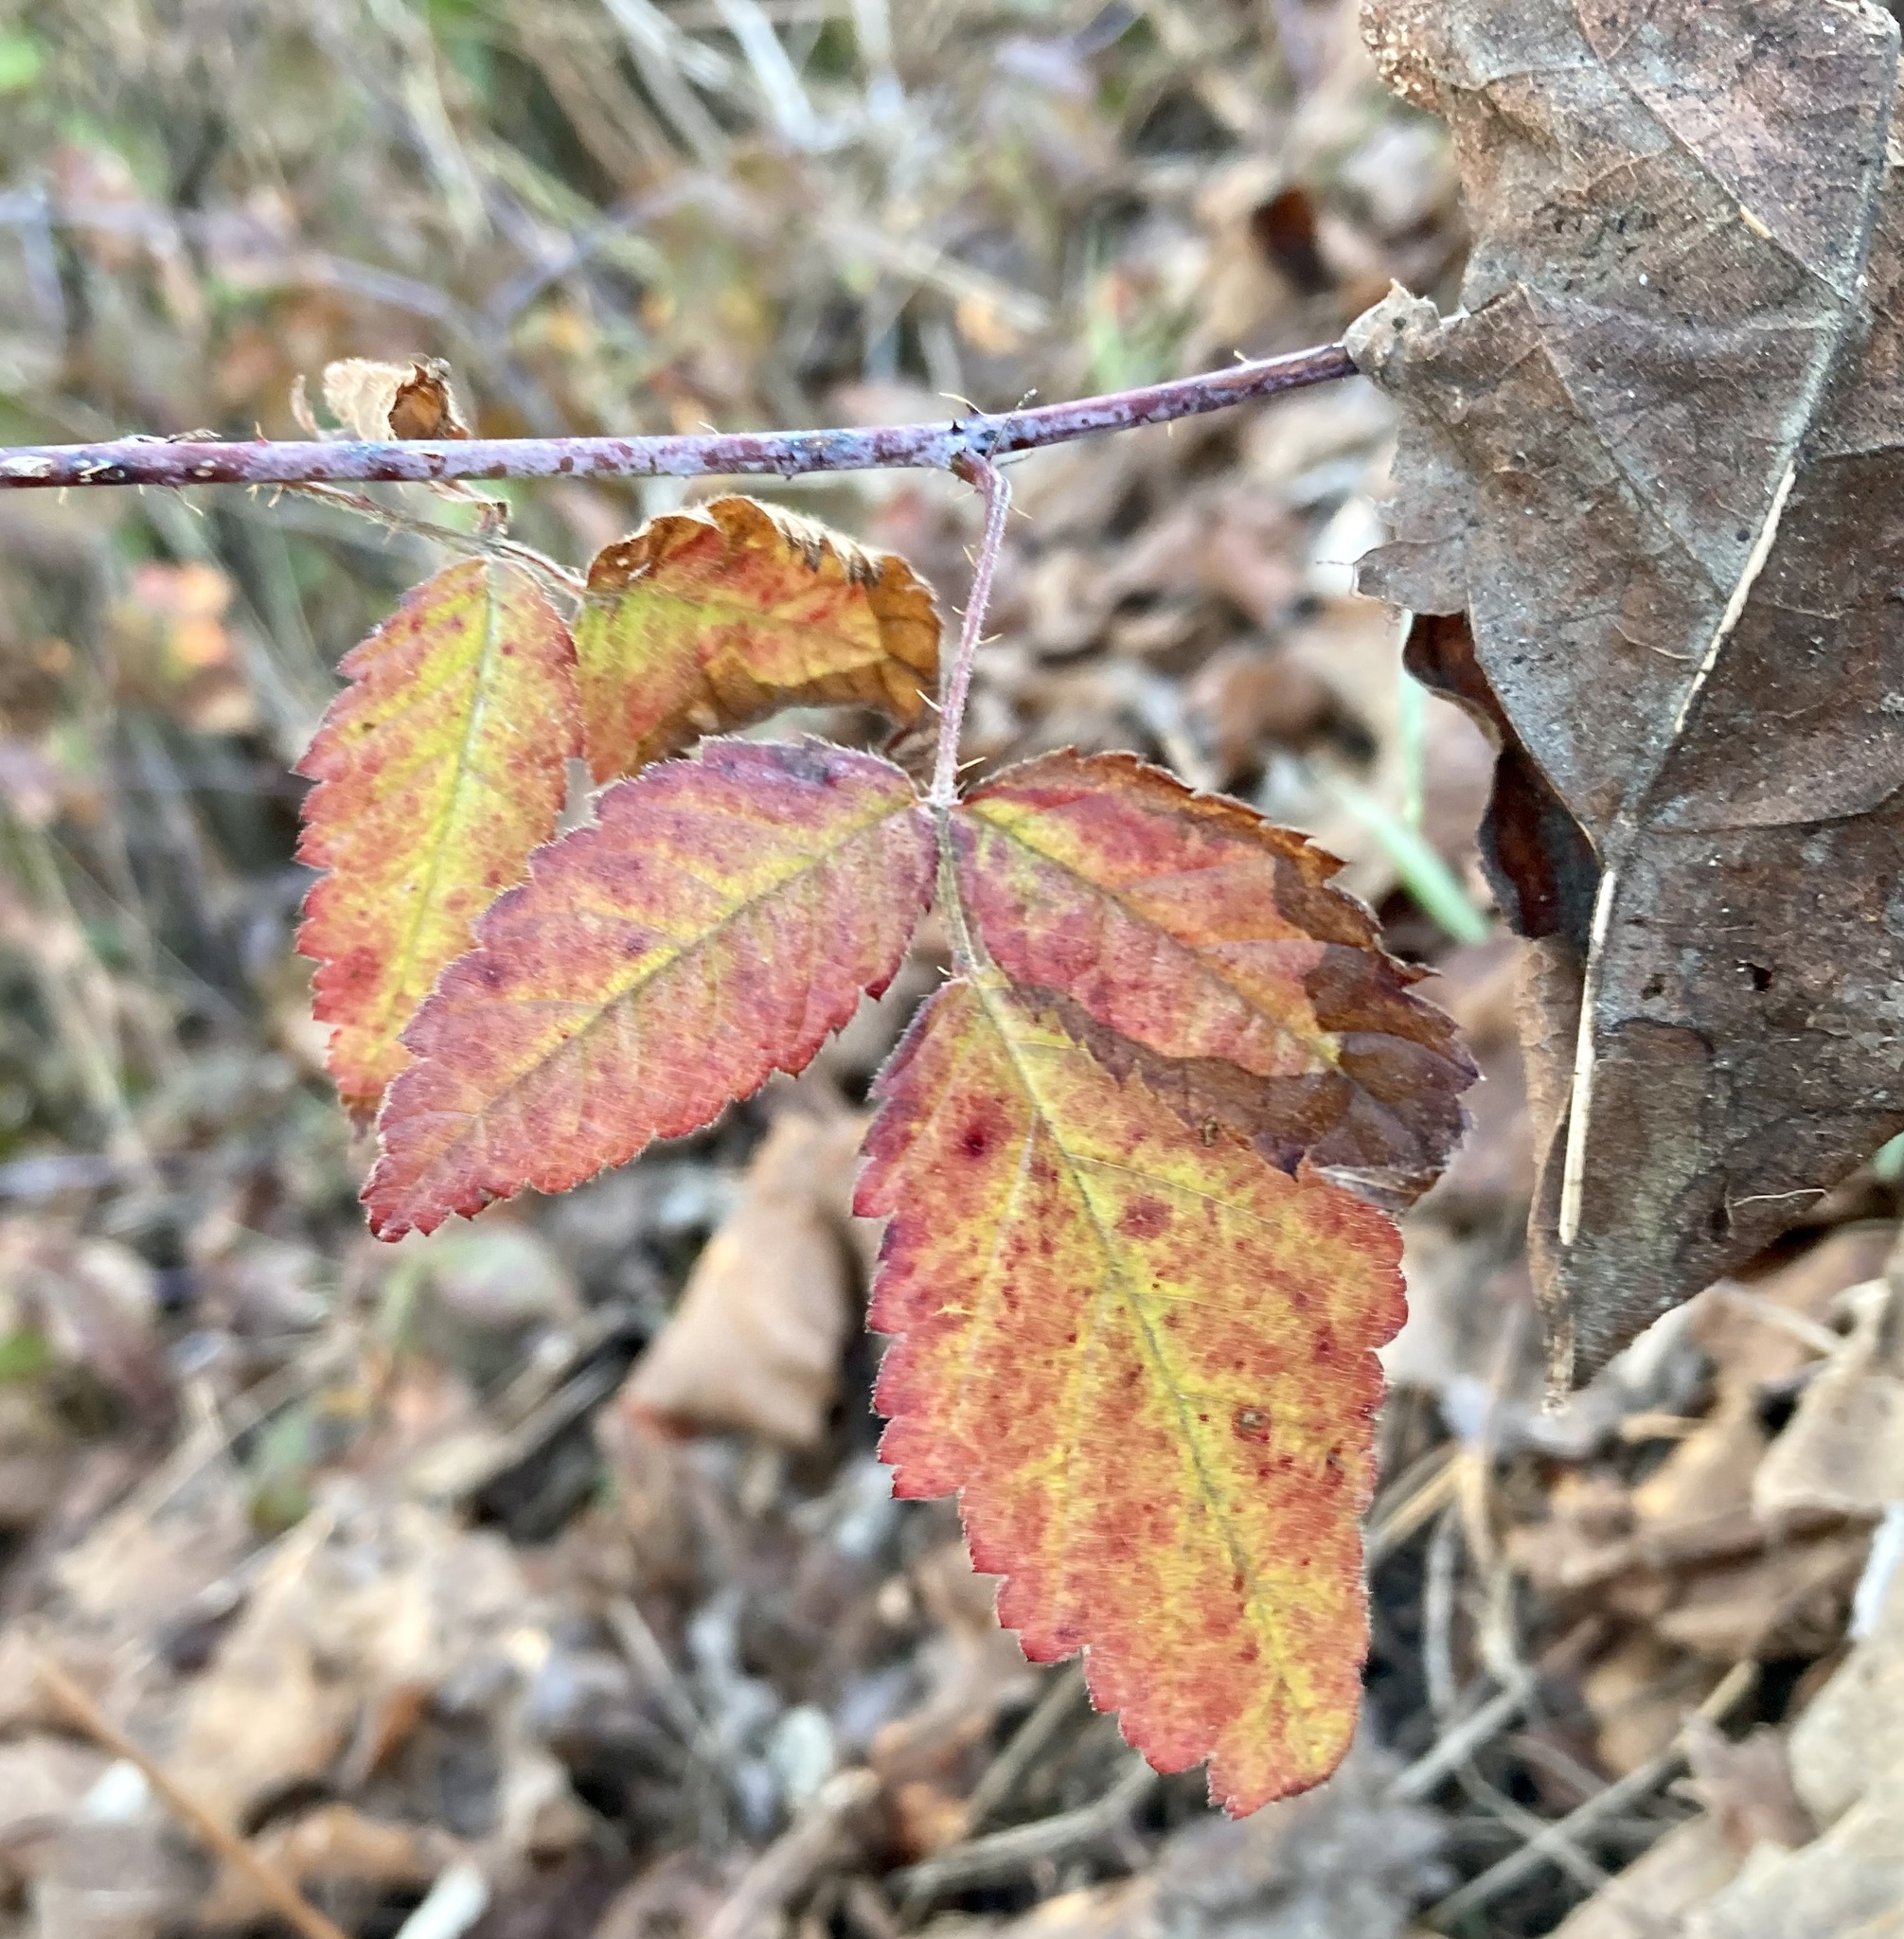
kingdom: Plantae
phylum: Tracheophyta
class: Magnoliopsida
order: Rosales
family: Rosaceae
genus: Rubus
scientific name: Rubus ursinus
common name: Pacific blackberry
